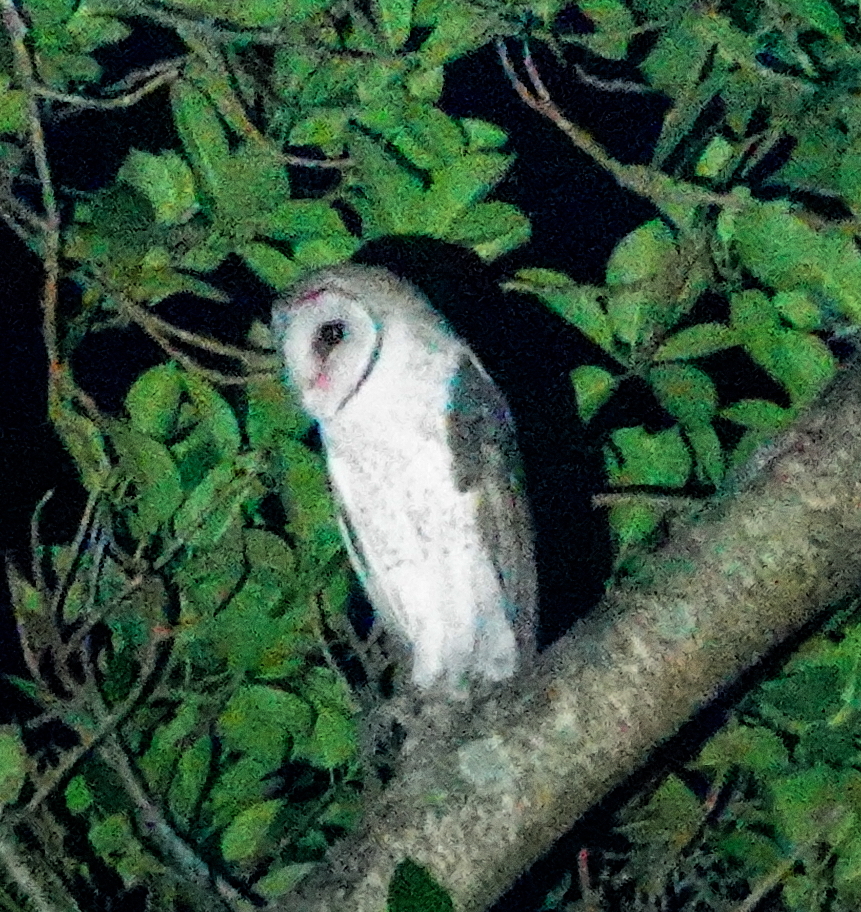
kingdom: Animalia
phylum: Chordata
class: Aves
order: Strigiformes
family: Tytonidae
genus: Tyto
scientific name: Tyto javanica
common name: Eastern barn owl
